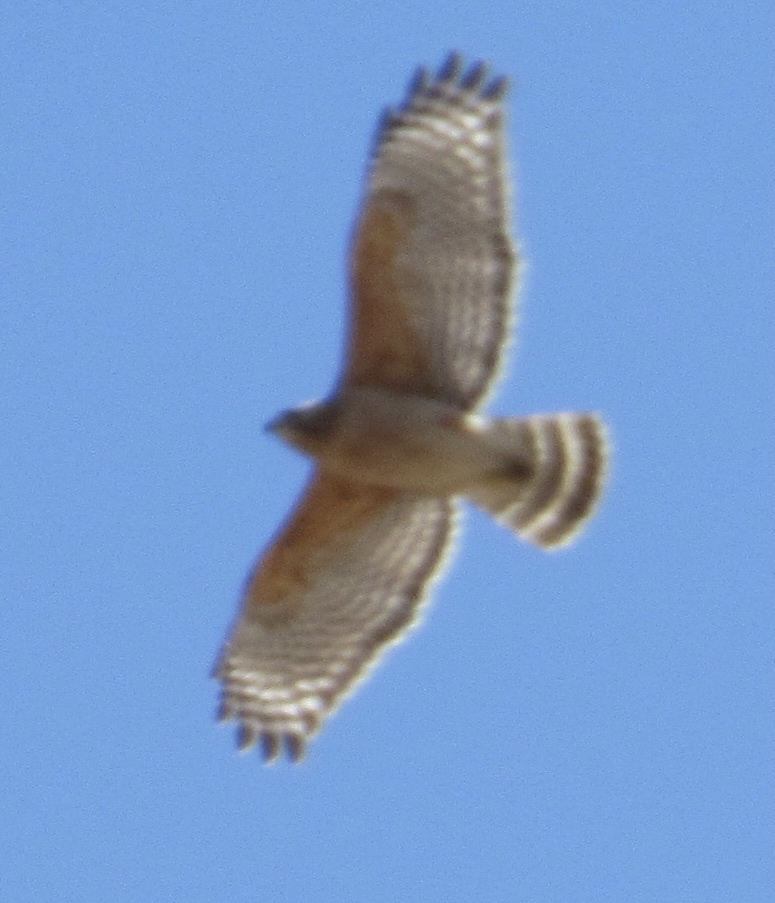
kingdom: Animalia
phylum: Chordata
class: Aves
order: Accipitriformes
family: Accipitridae
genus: Buteo
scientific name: Buteo lineatus
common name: Red-shouldered hawk
